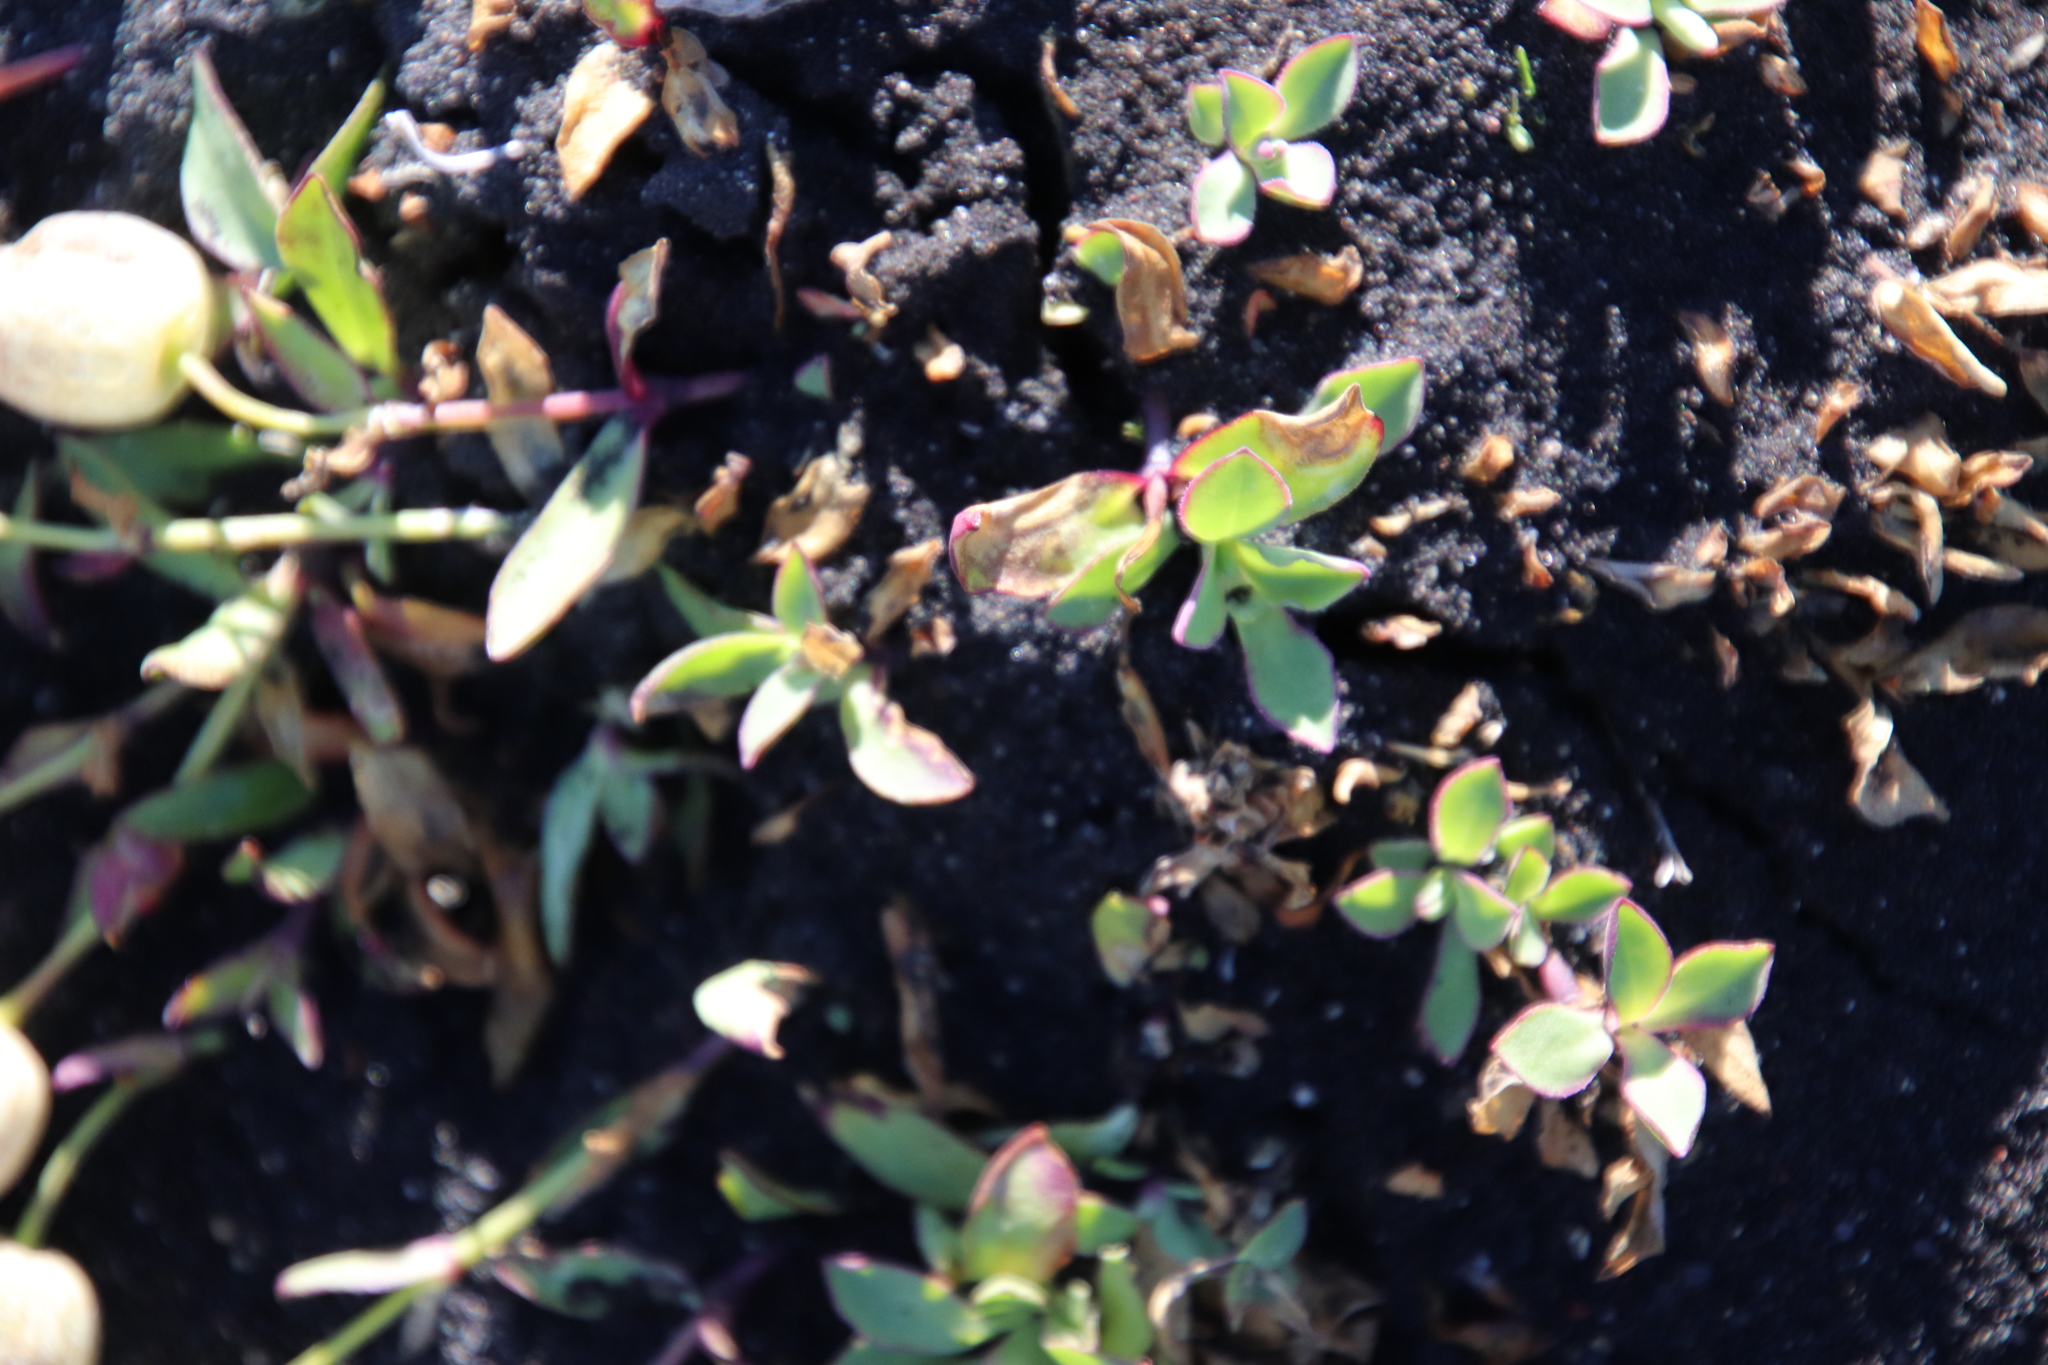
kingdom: Plantae
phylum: Tracheophyta
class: Magnoliopsida
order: Caryophyllales
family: Caryophyllaceae
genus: Silene
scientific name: Silene uniflora
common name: Sea campion
